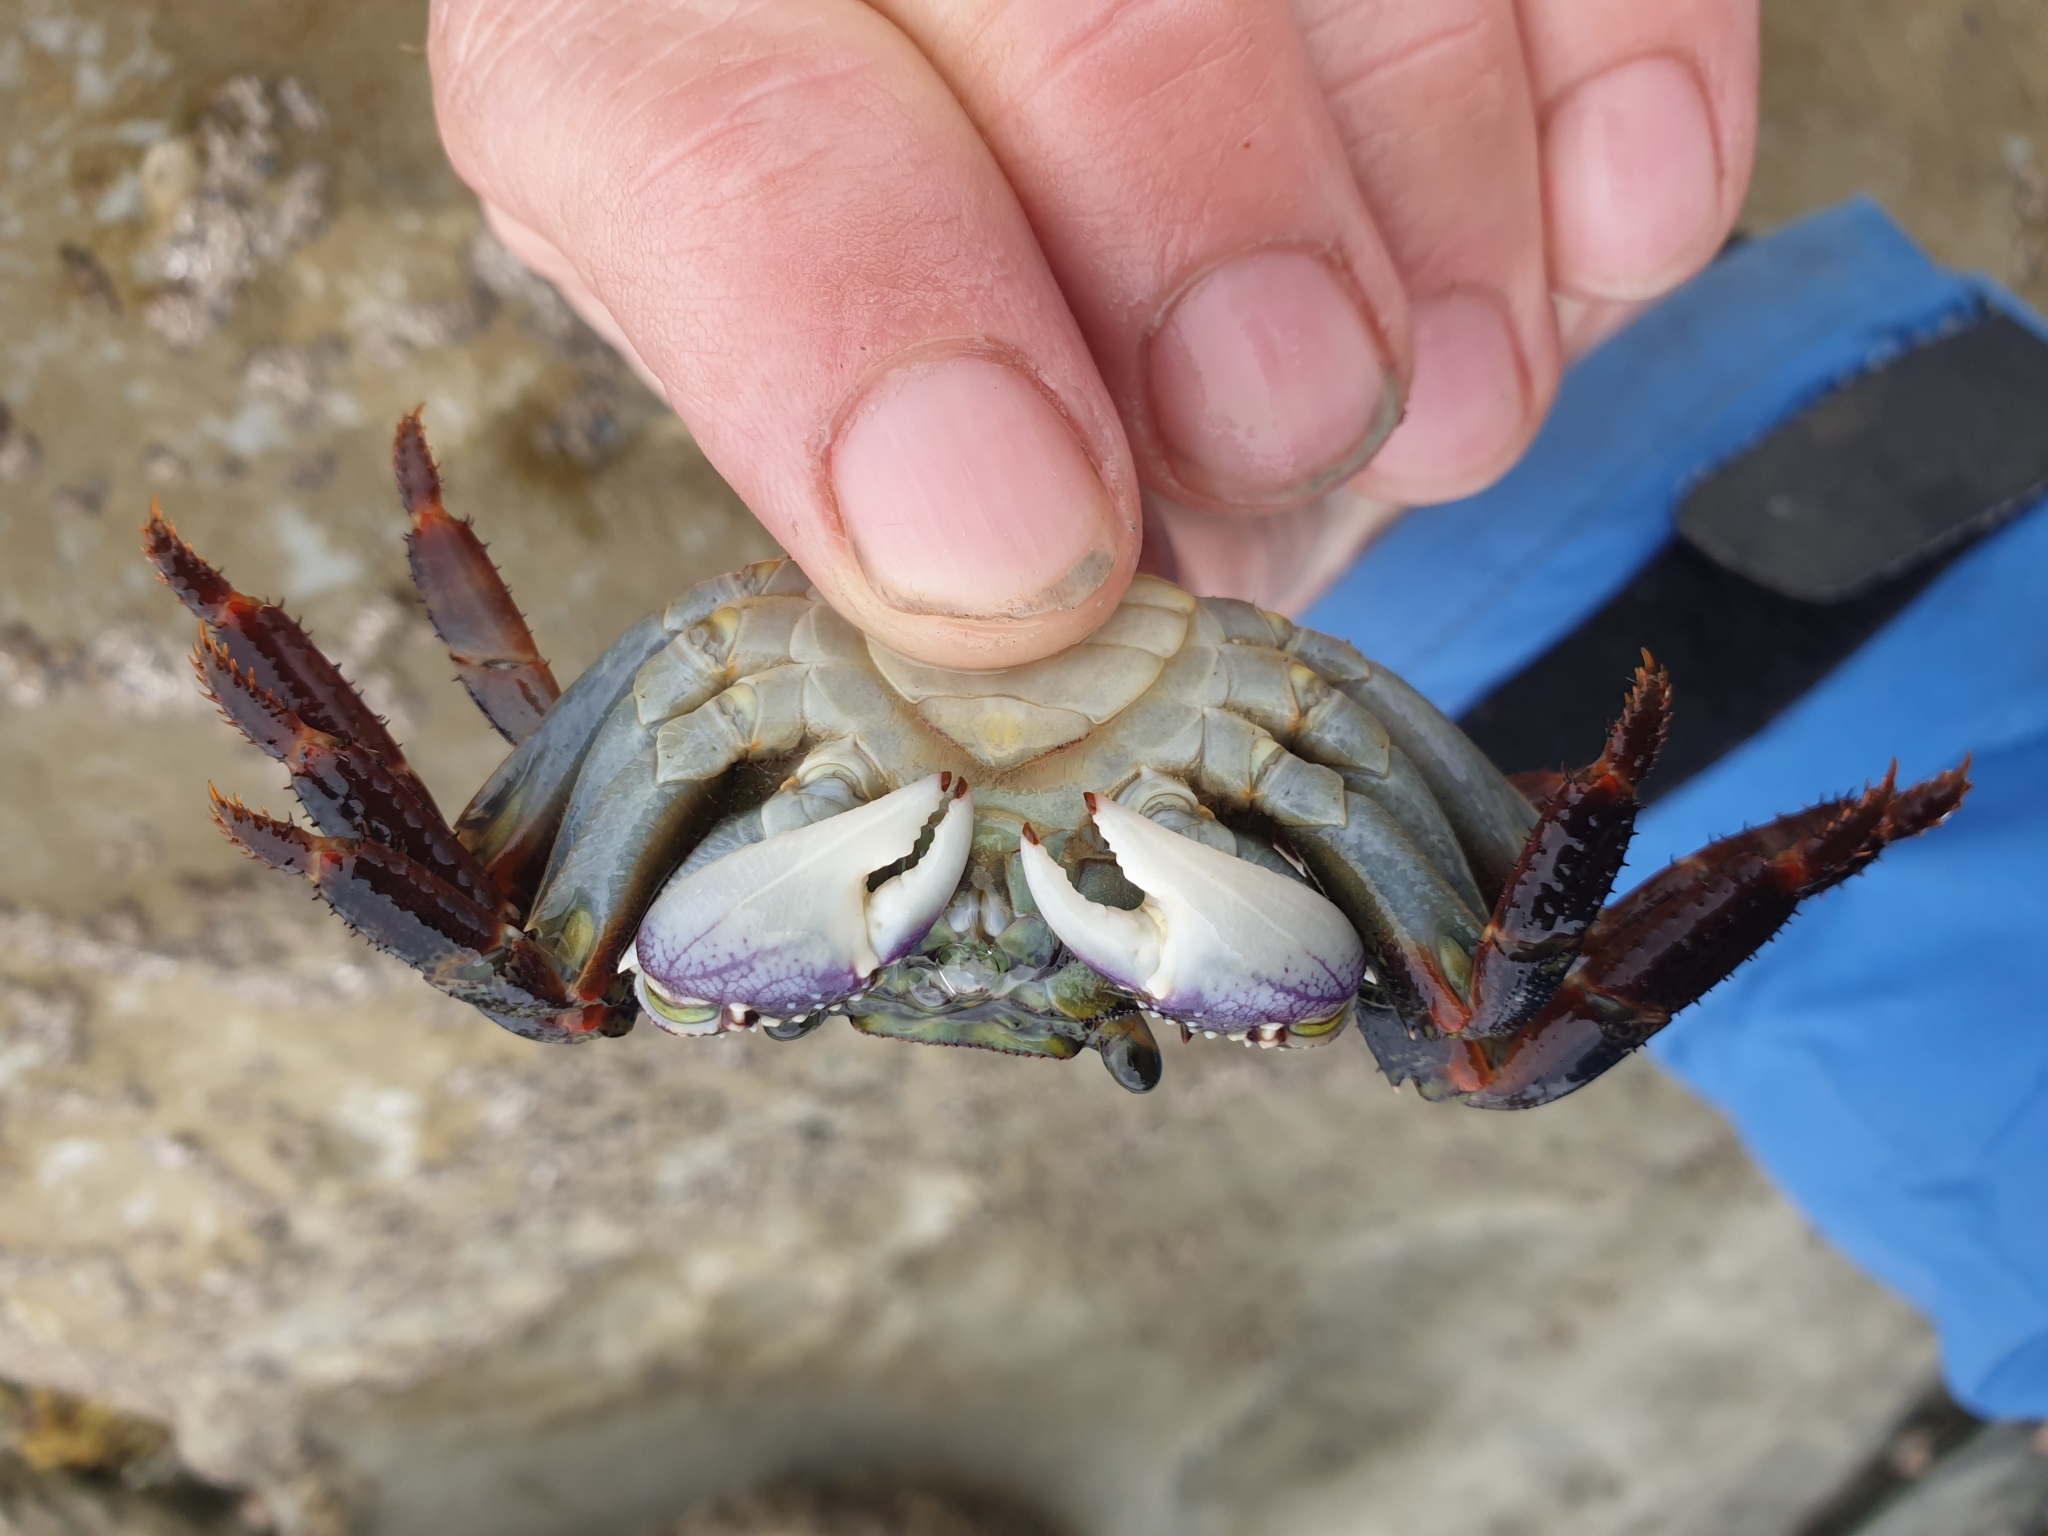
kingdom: Animalia
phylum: Arthropoda
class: Malacostraca
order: Decapoda
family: Grapsidae
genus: Leptograpsus
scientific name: Leptograpsus variegatus
